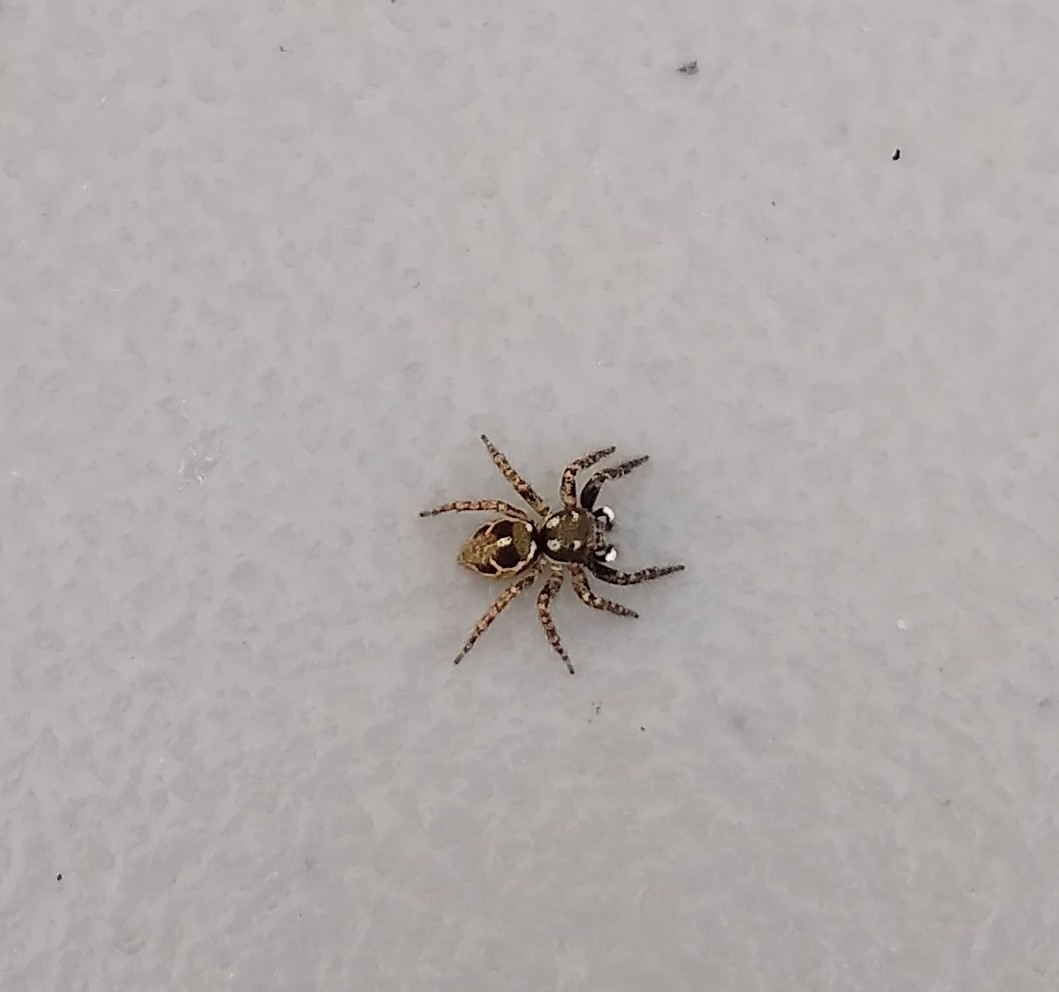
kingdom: Animalia
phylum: Arthropoda
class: Arachnida
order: Araneae
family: Salticidae
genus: Anasaitis
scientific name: Anasaitis canosa
